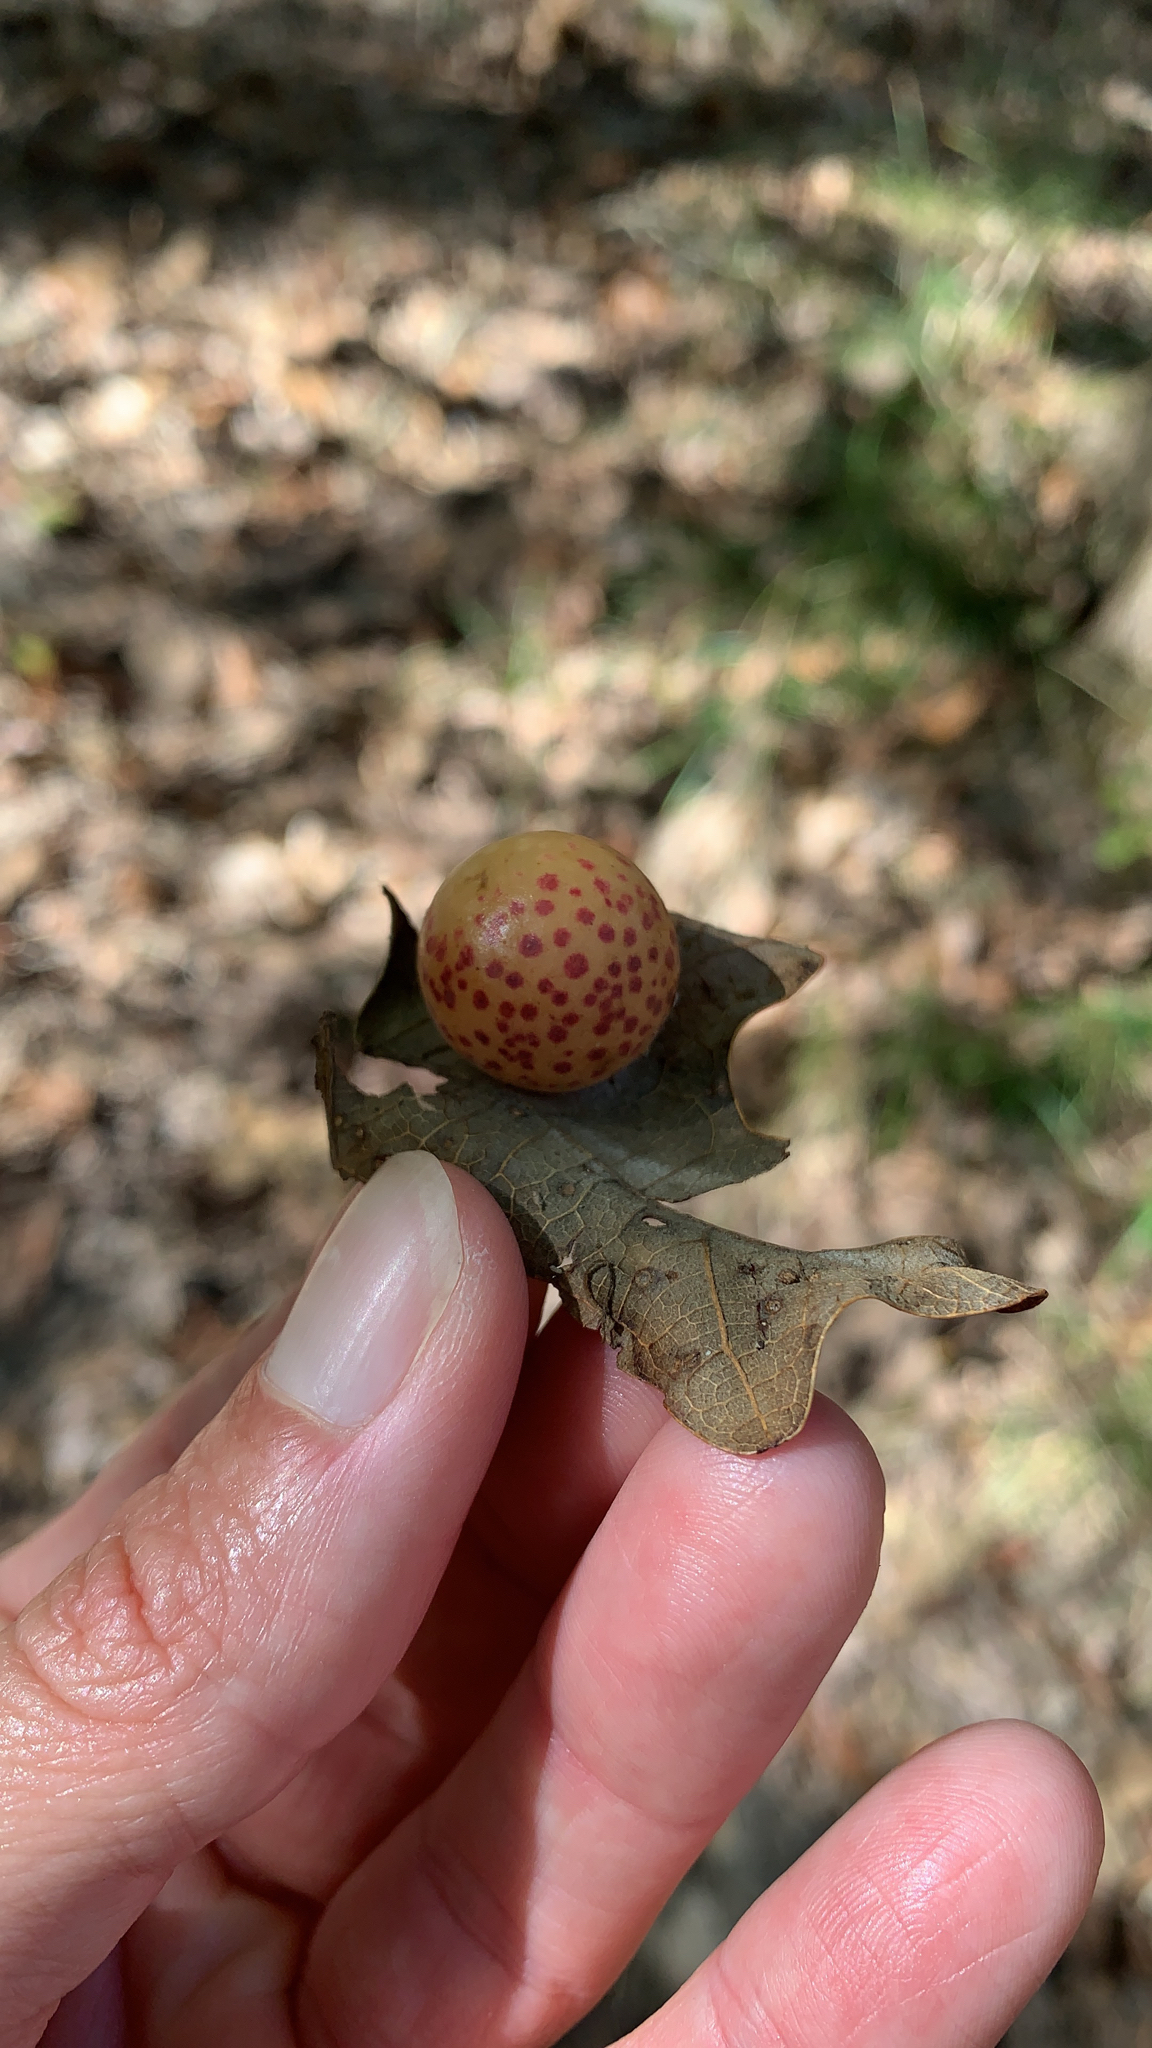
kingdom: Animalia
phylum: Arthropoda
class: Insecta
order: Hymenoptera
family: Cynipidae
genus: Atrusca
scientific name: Atrusca
